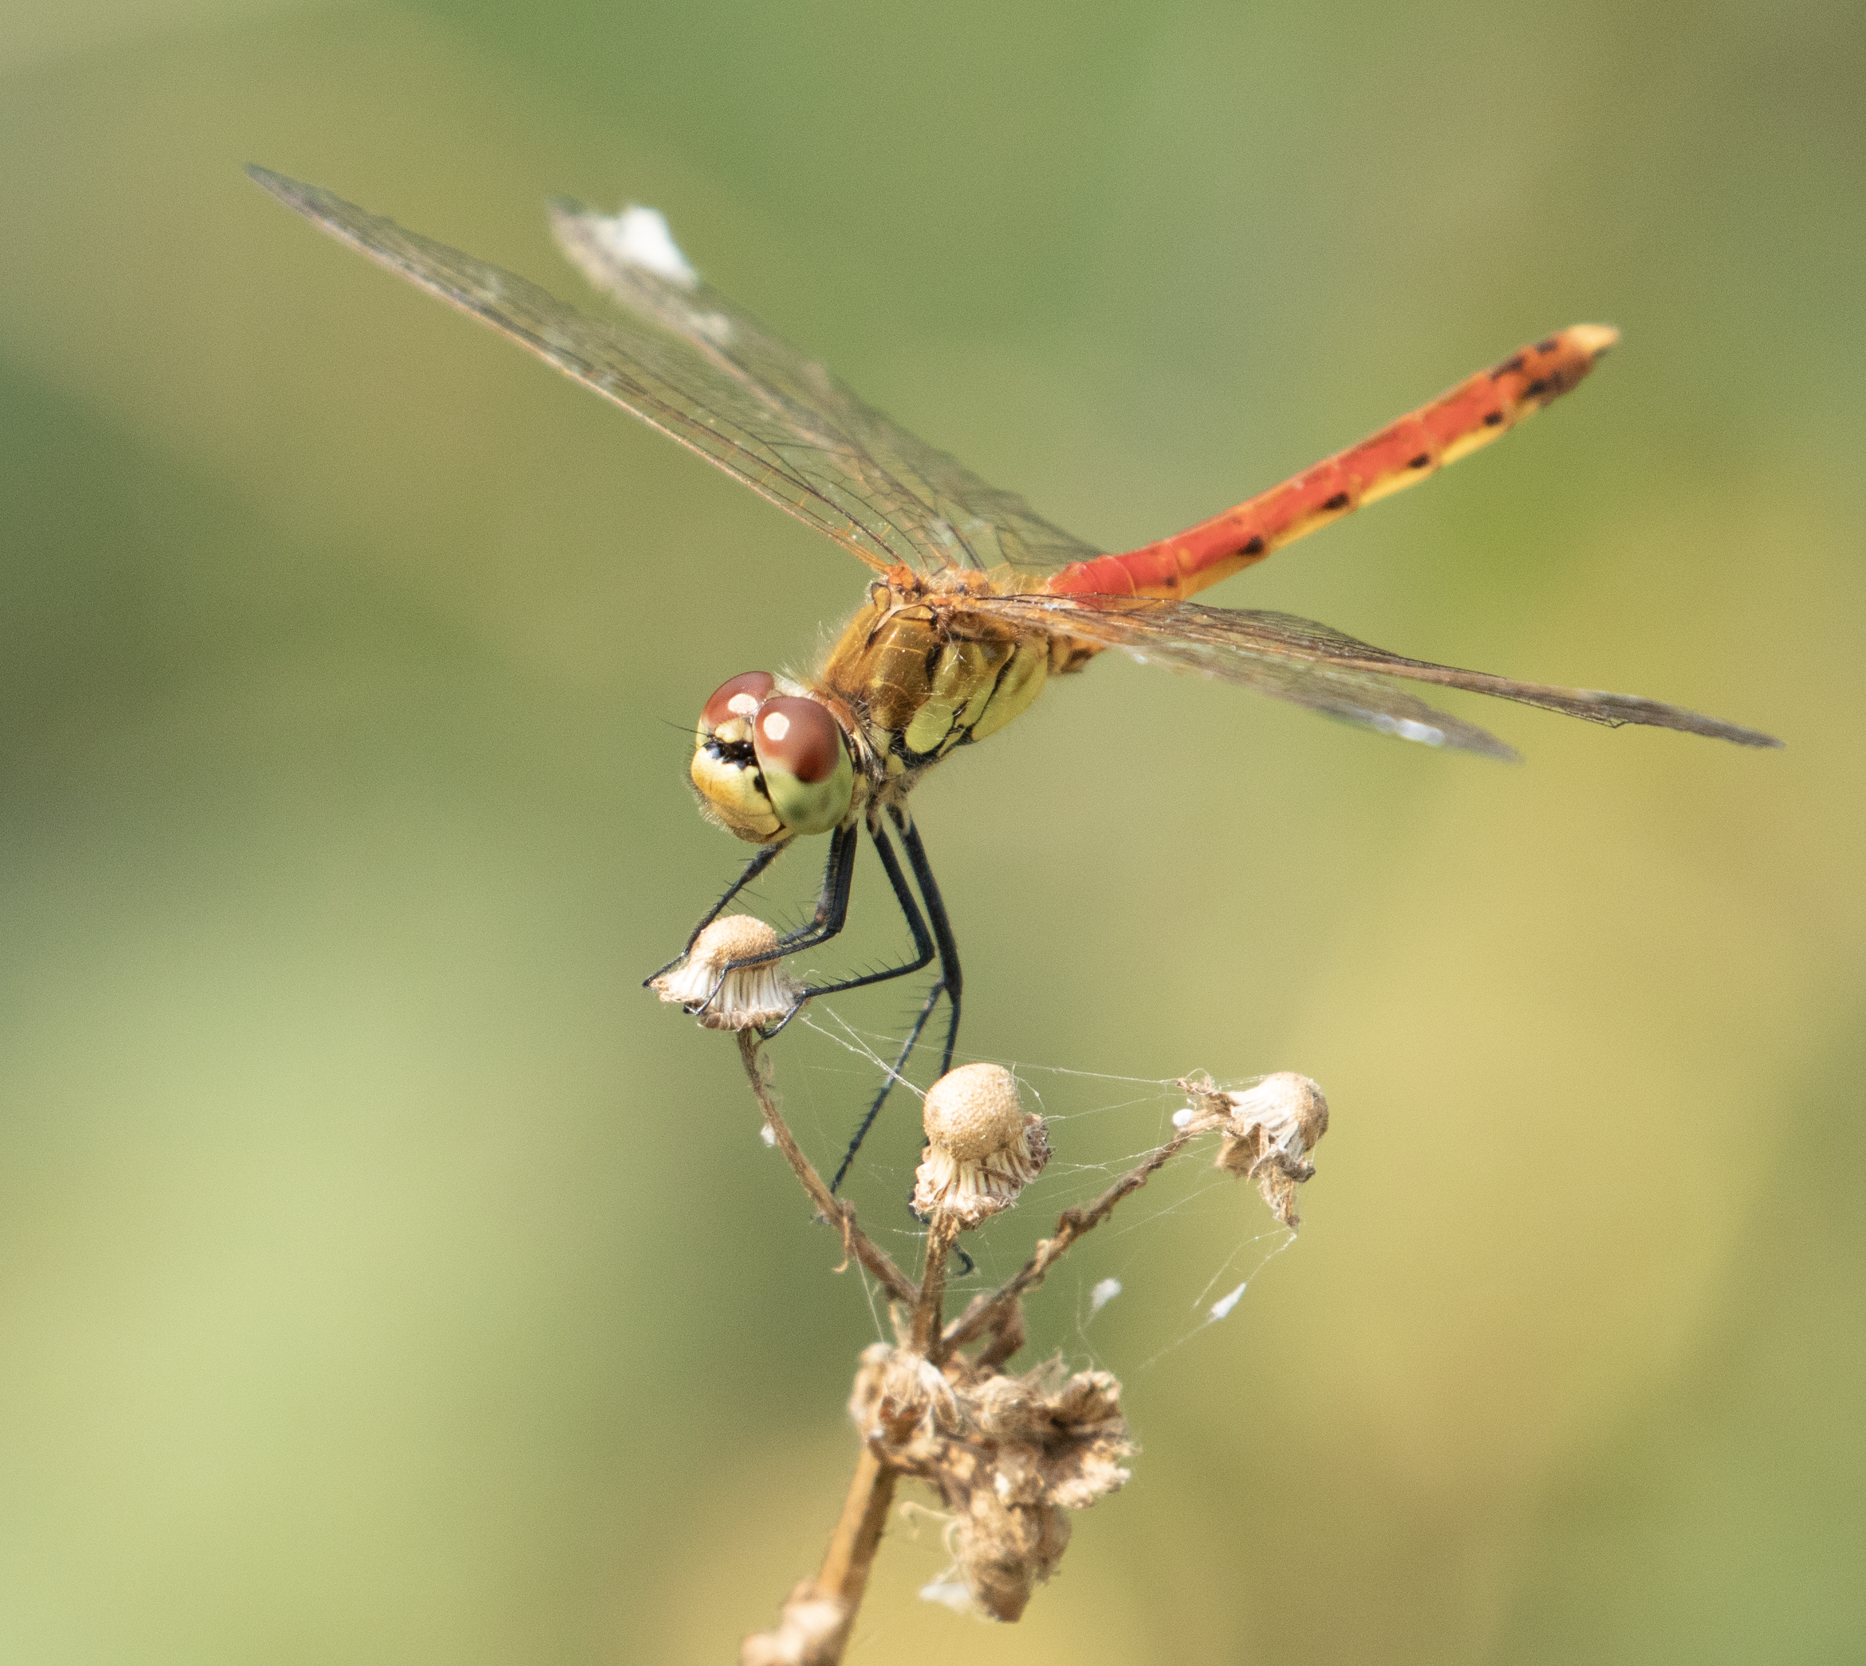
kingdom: Animalia
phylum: Arthropoda
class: Insecta
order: Odonata
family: Libellulidae
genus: Sympetrum
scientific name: Sympetrum depressiusculum
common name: Spotted darter
